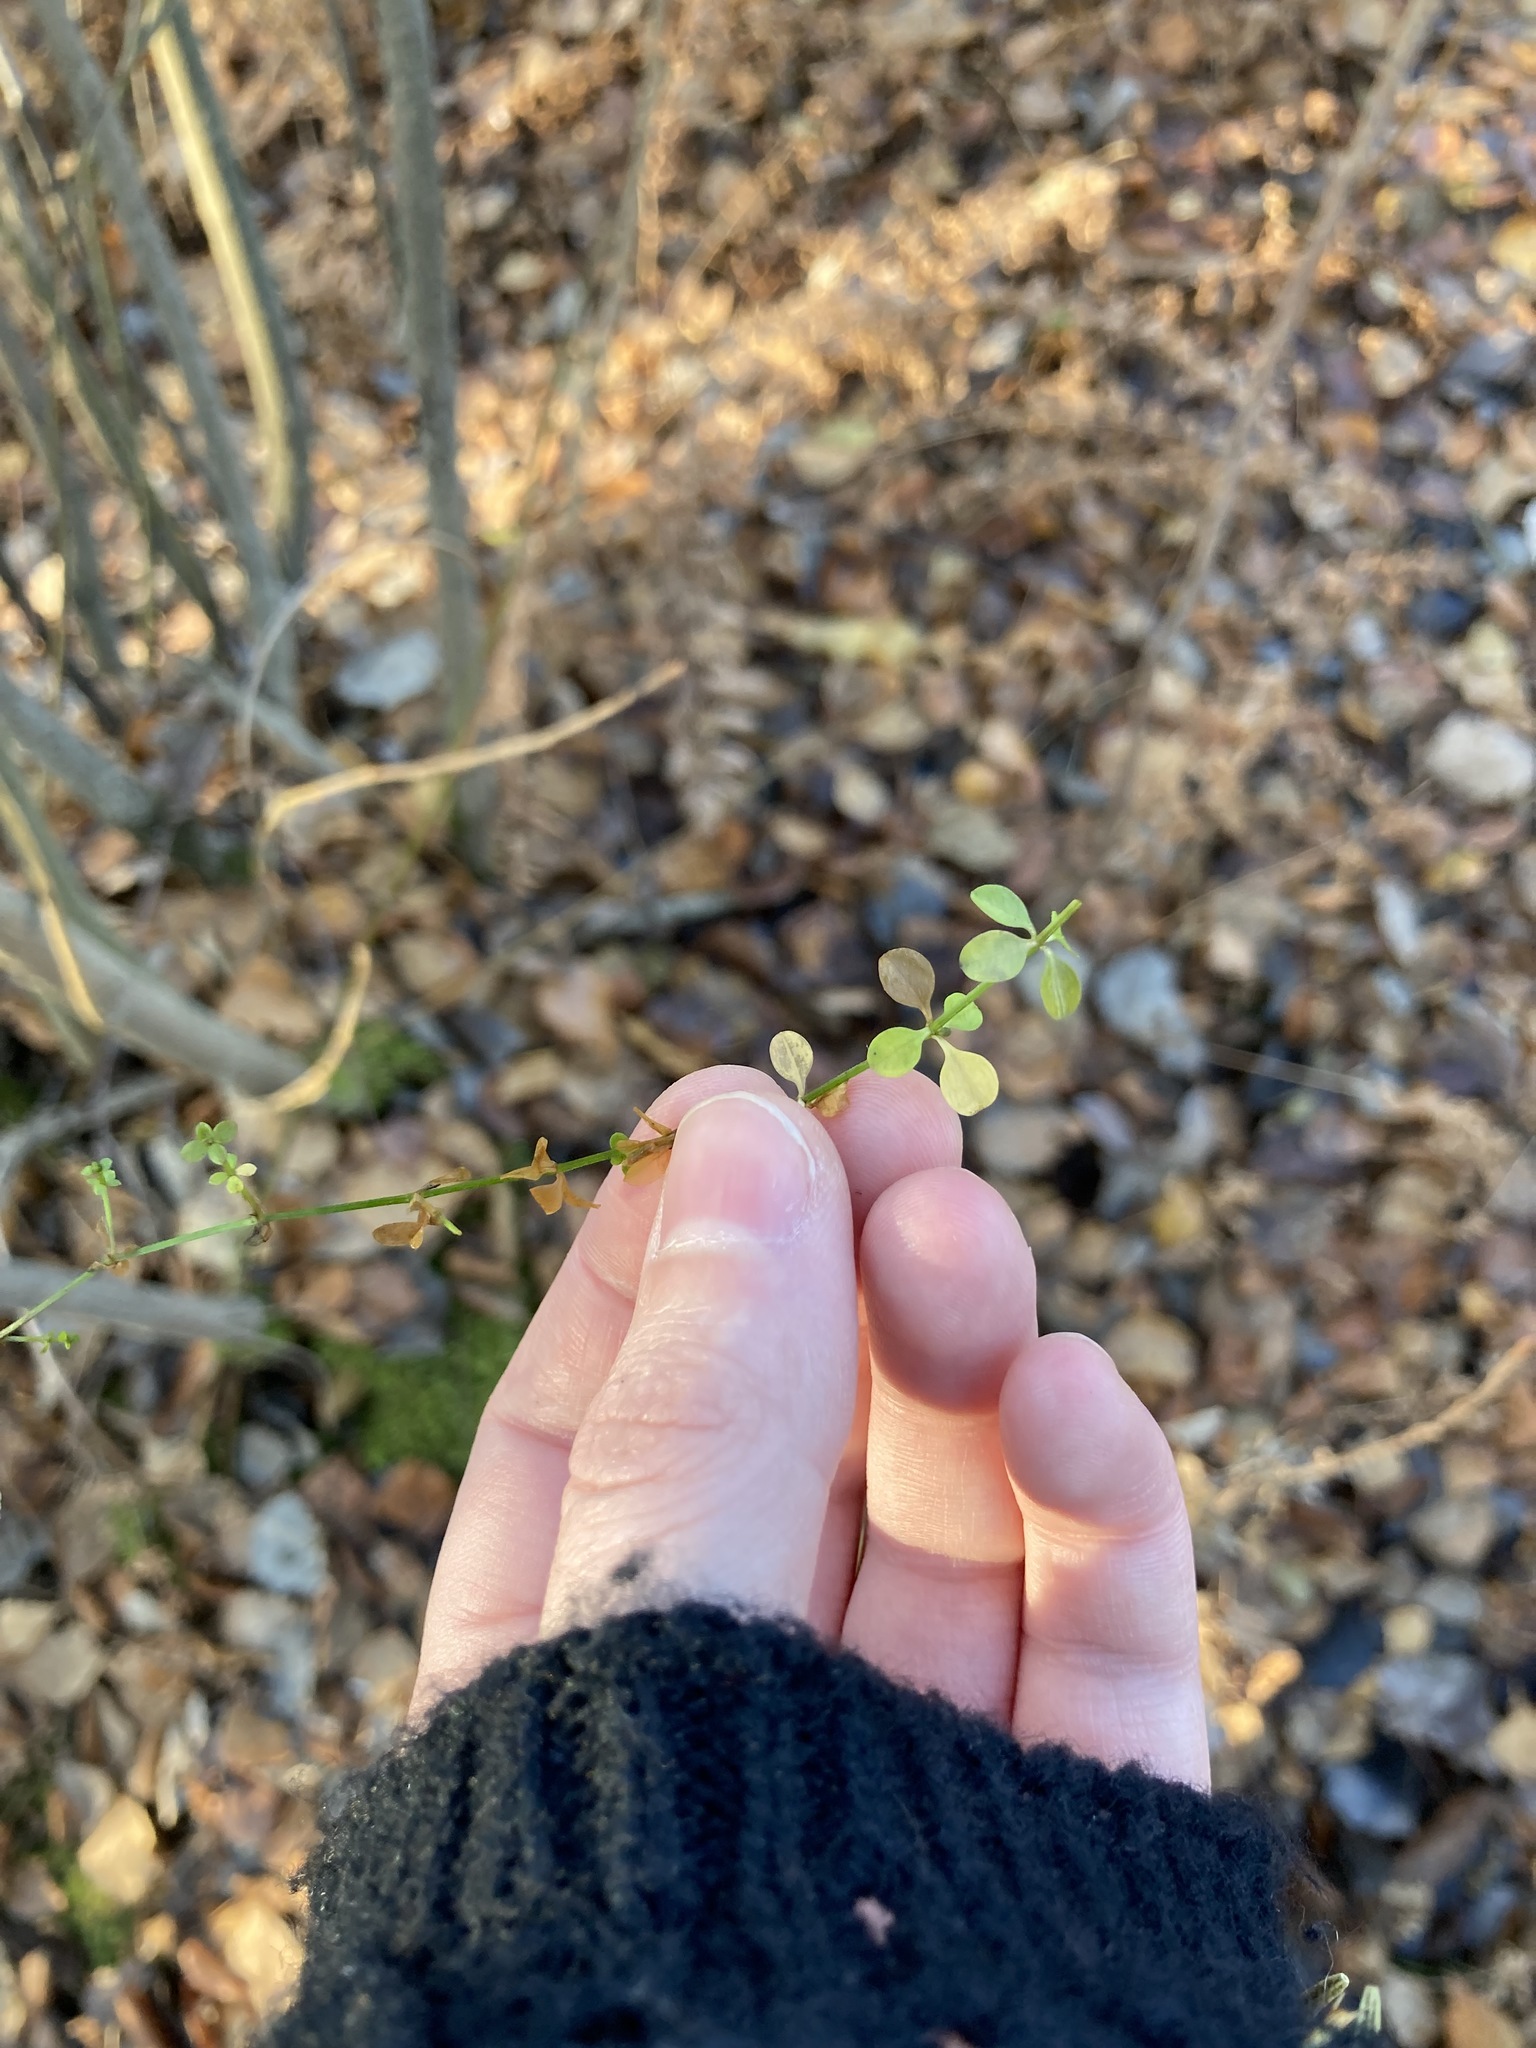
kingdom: Plantae
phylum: Tracheophyta
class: Magnoliopsida
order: Gentianales
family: Rubiaceae
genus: Galium
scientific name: Galium palustre
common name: Common marsh-bedstraw
